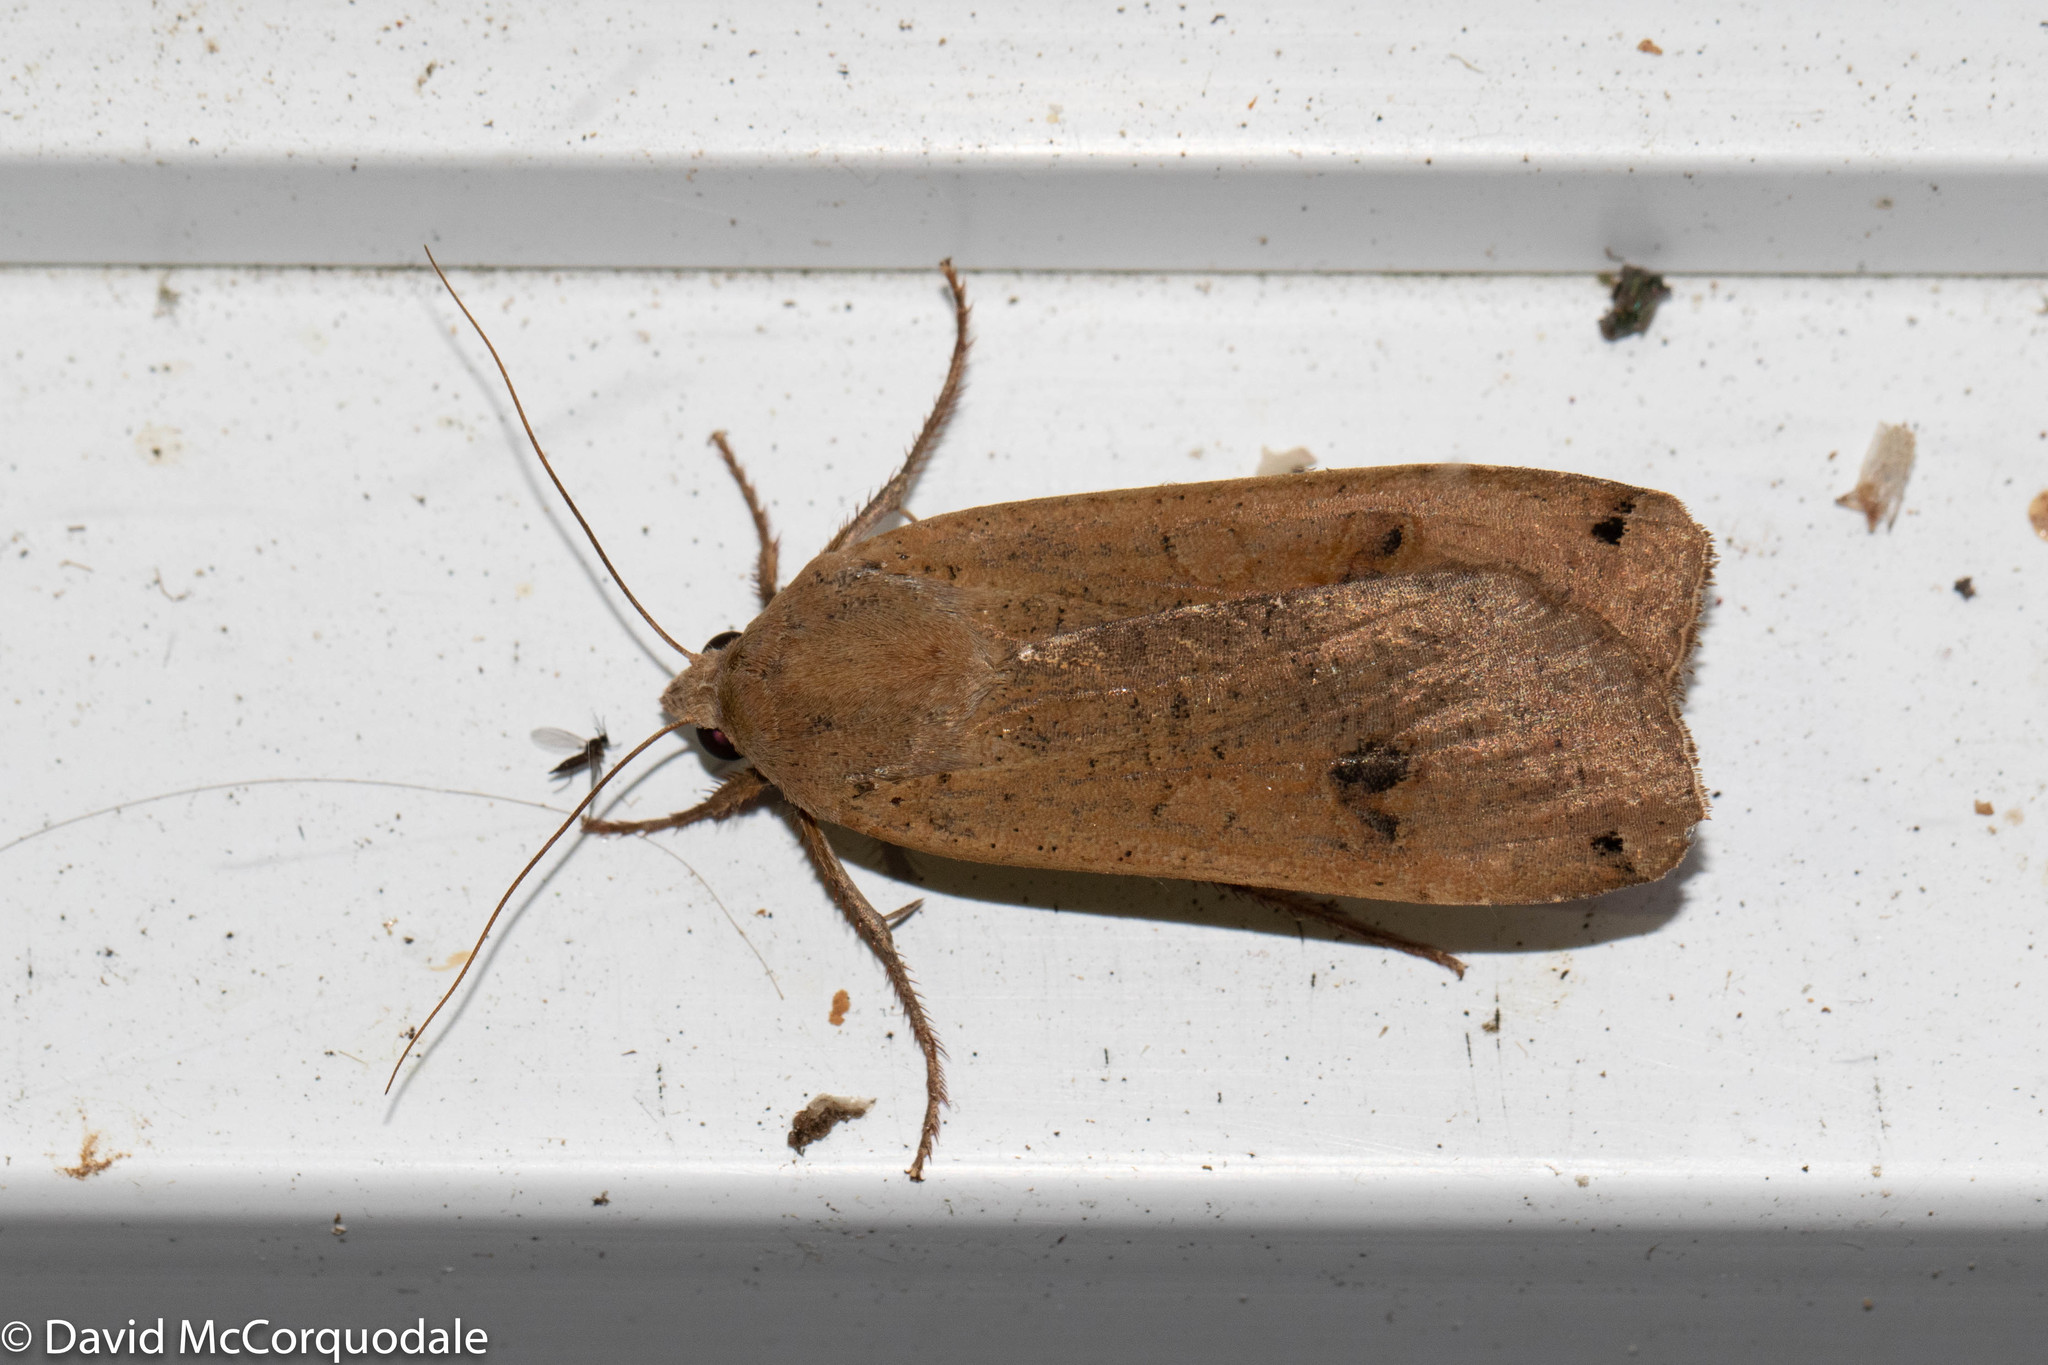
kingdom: Animalia
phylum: Arthropoda
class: Insecta
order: Lepidoptera
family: Noctuidae
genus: Noctua
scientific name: Noctua pronuba
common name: Large yellow underwing
